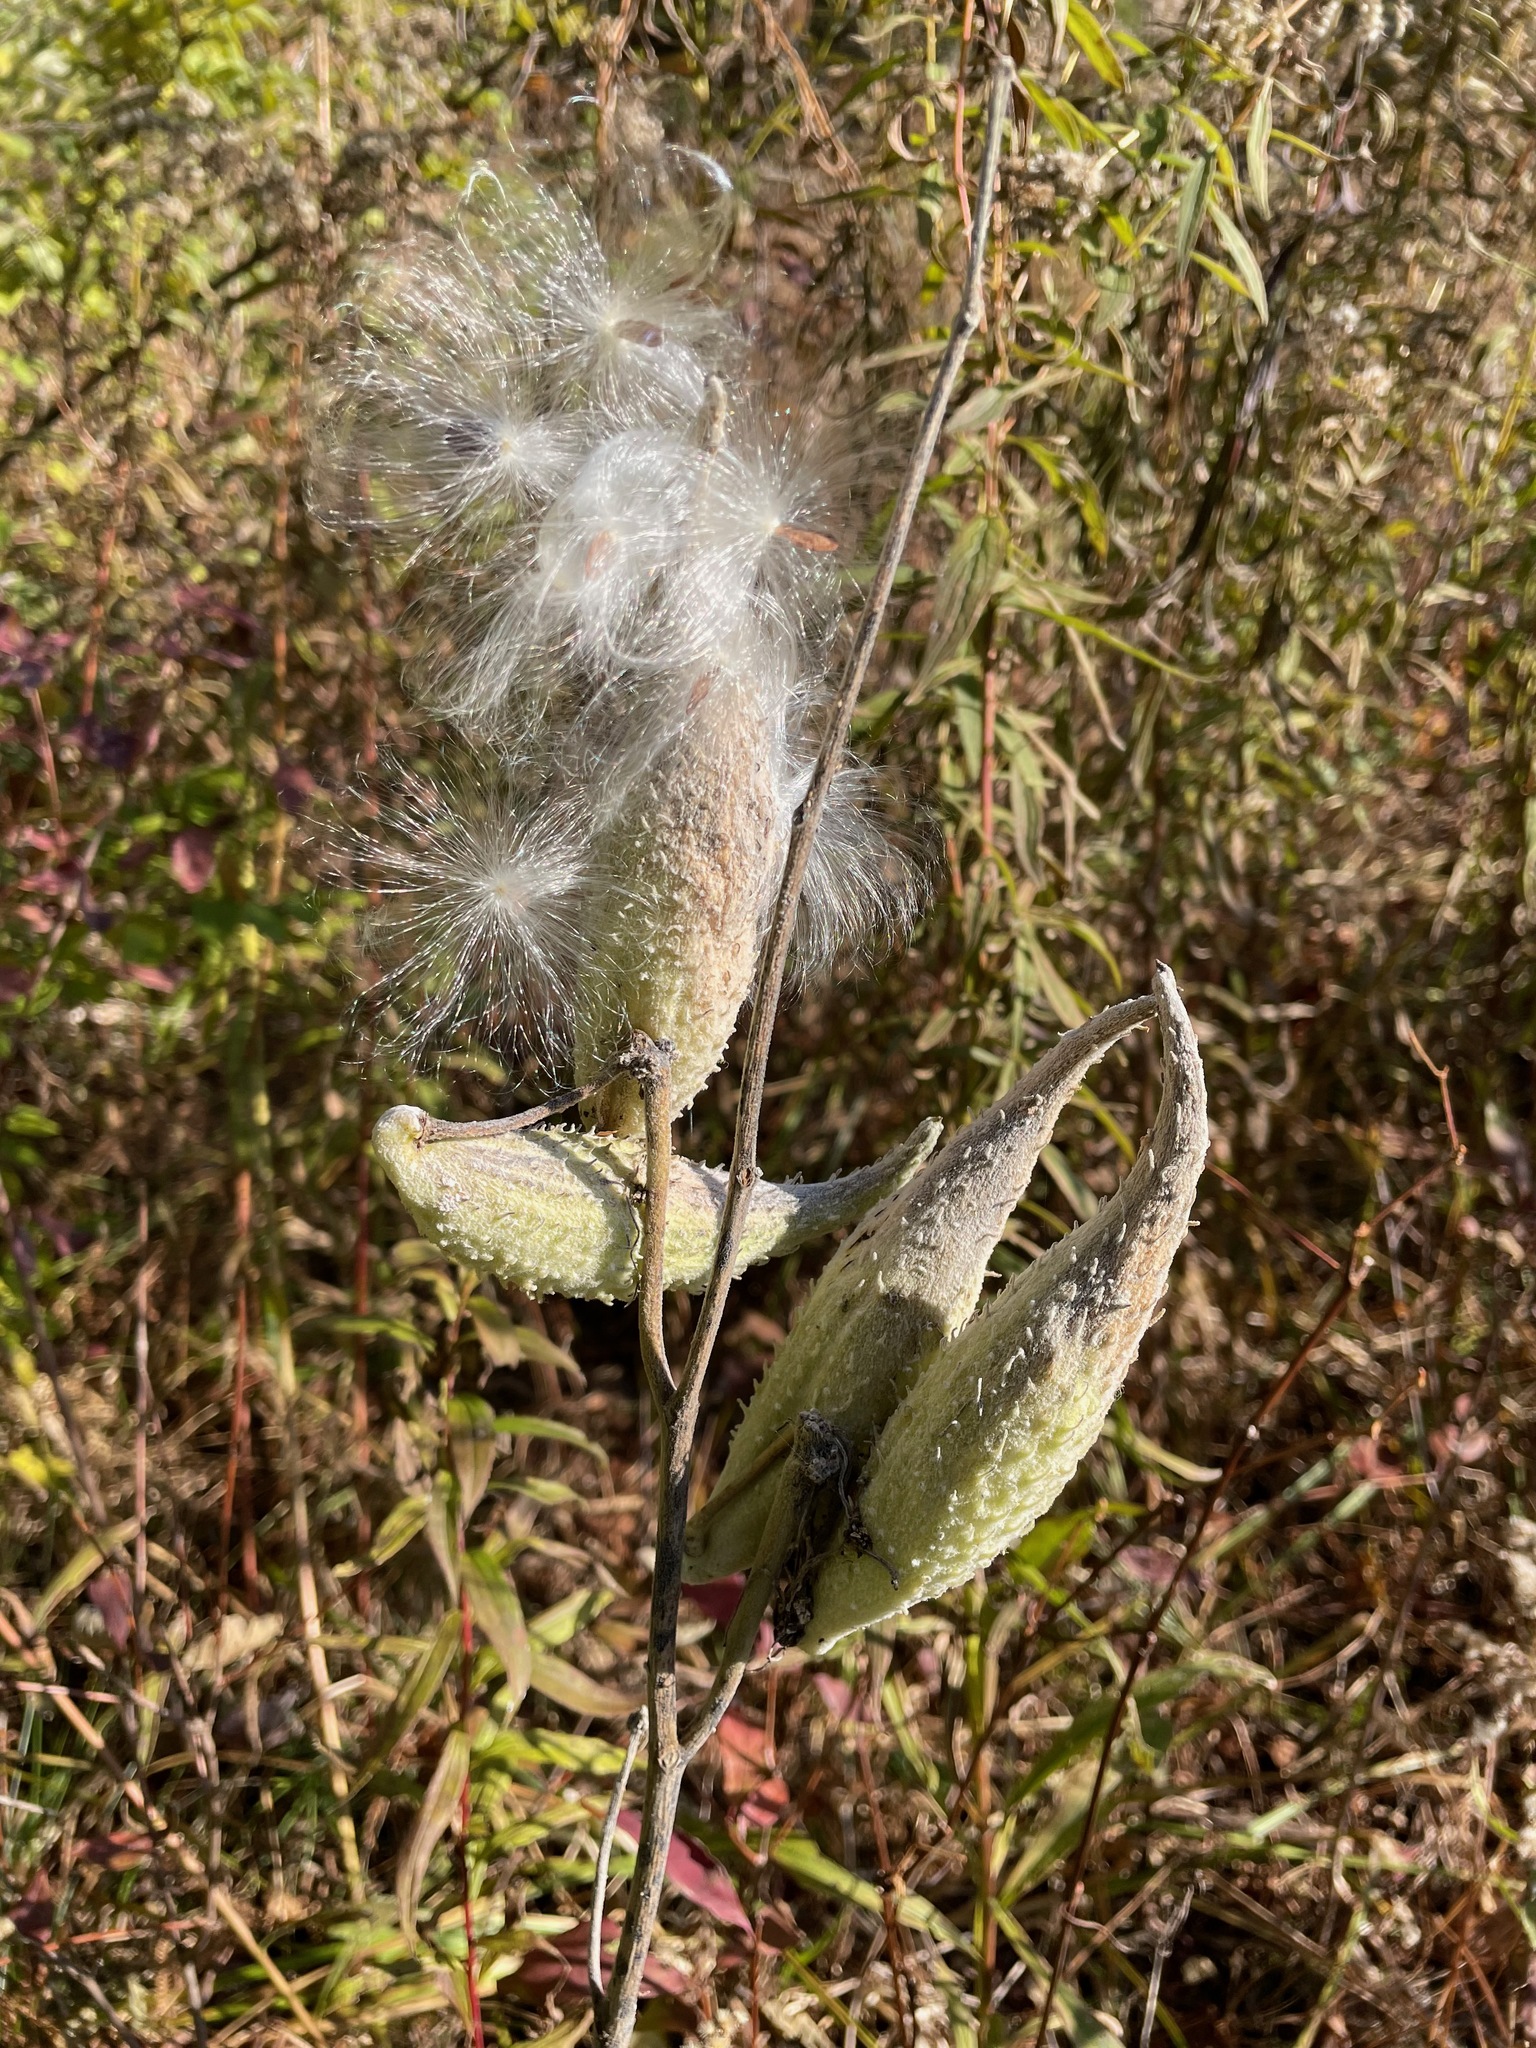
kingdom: Plantae
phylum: Tracheophyta
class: Magnoliopsida
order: Gentianales
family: Apocynaceae
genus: Asclepias
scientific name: Asclepias syriaca
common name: Common milkweed
